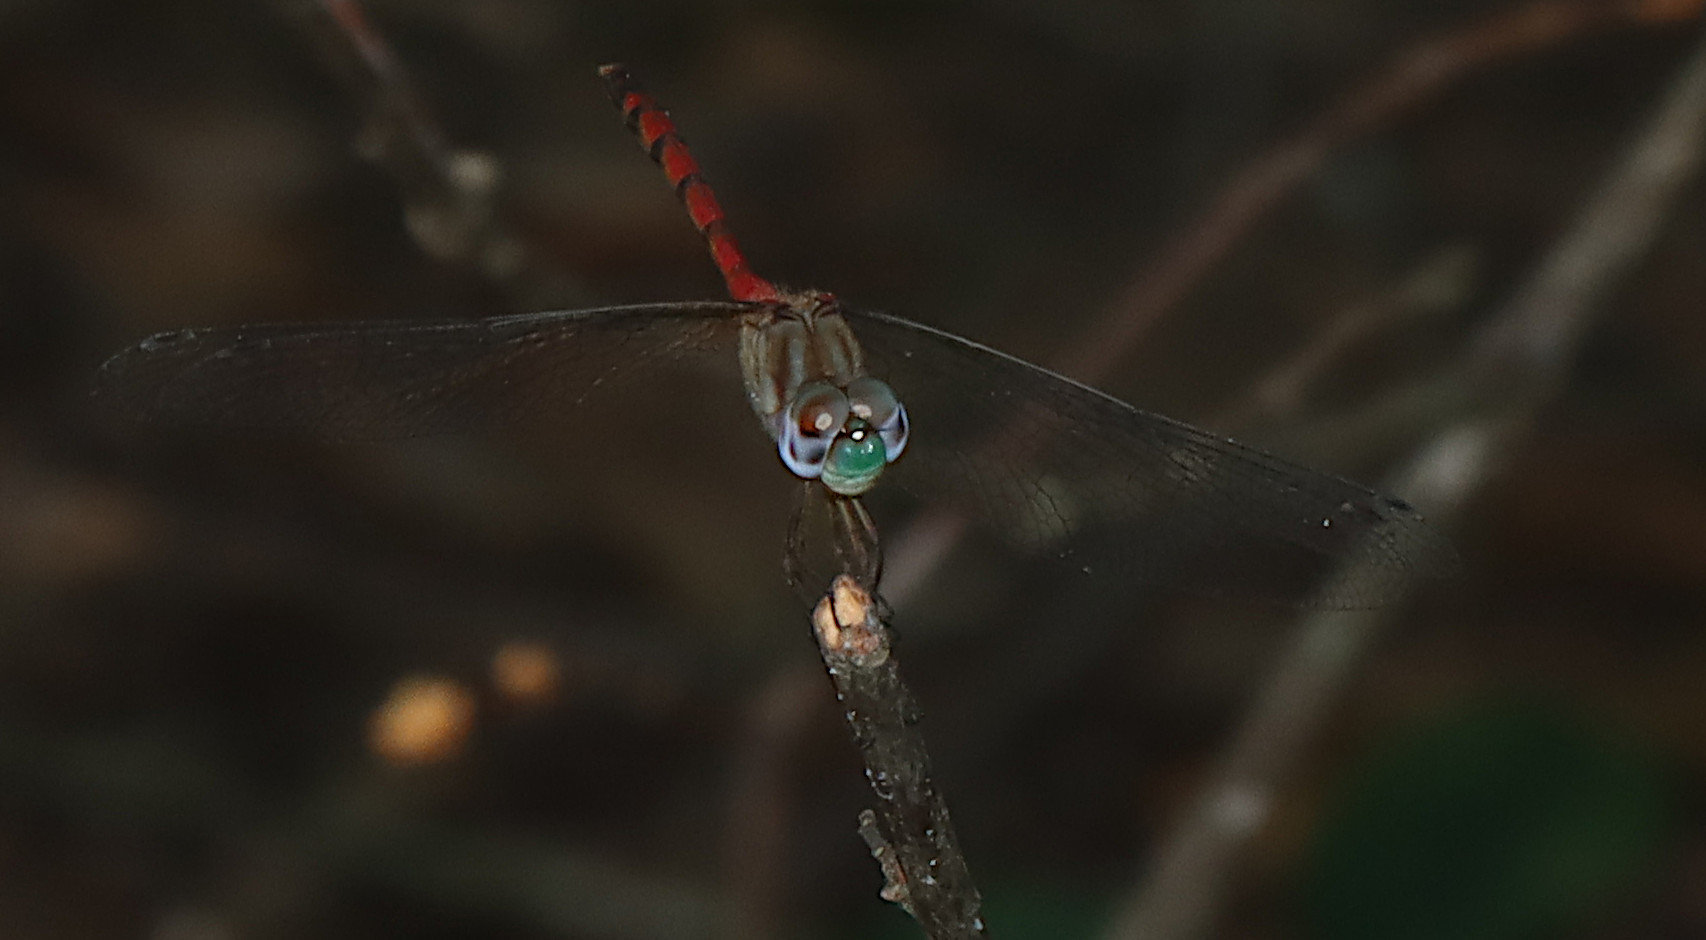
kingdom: Animalia
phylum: Arthropoda
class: Insecta
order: Odonata
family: Libellulidae
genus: Sympetrum
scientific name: Sympetrum ambiguum
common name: Blue-faced meadowhawk
